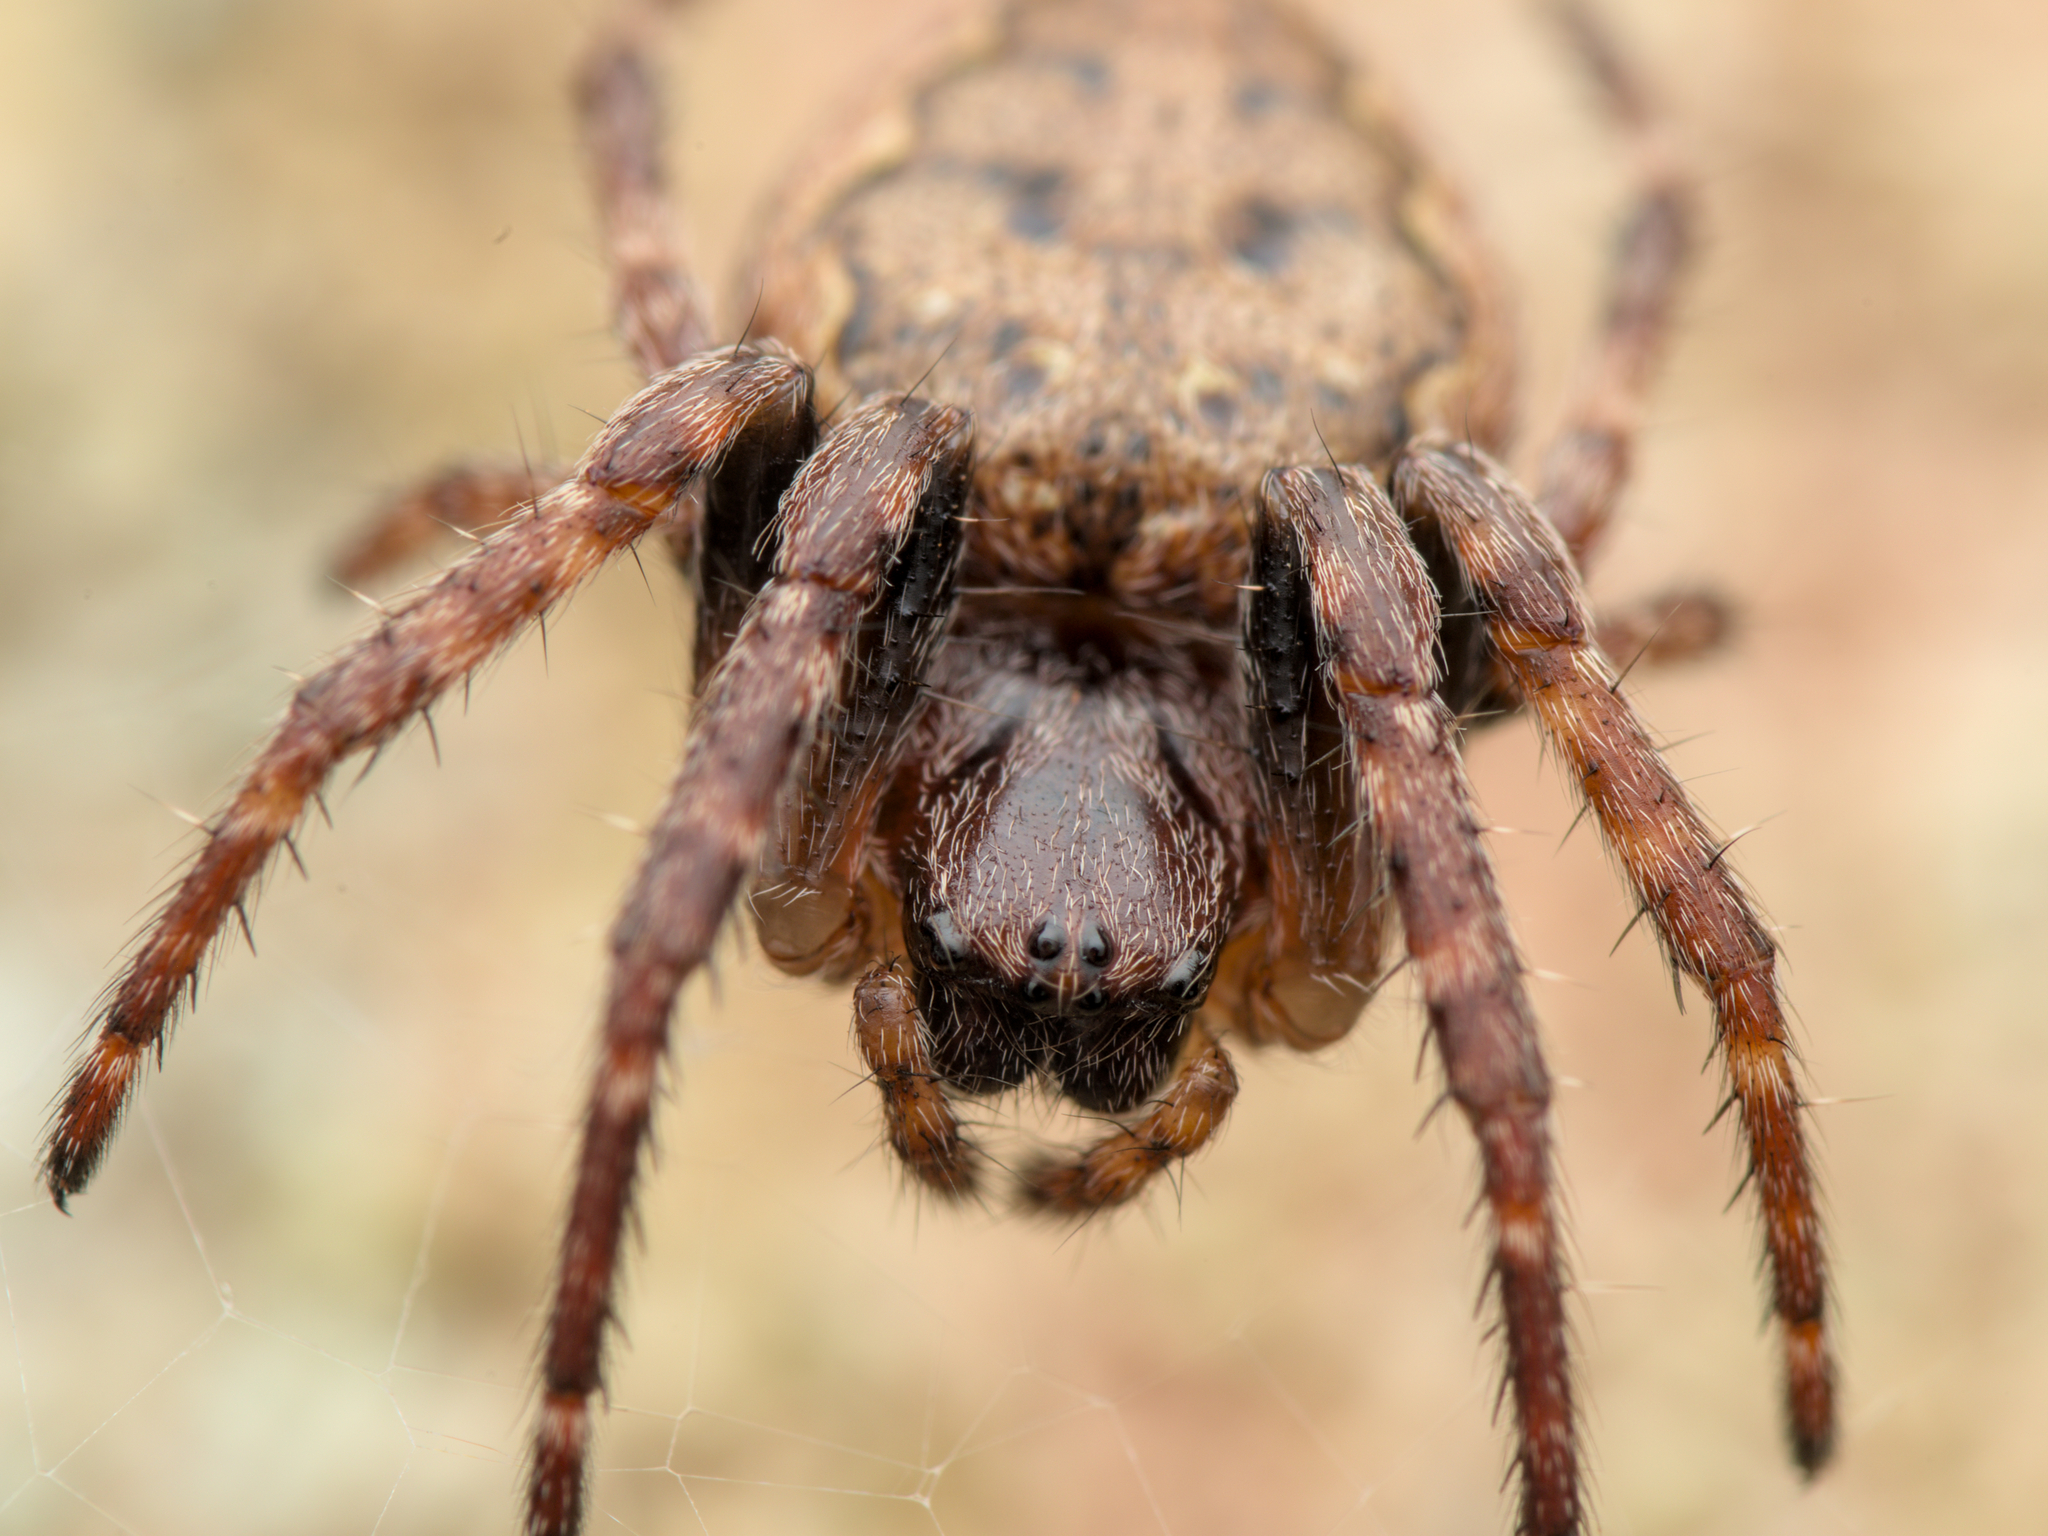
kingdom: Animalia
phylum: Arthropoda
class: Arachnida
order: Araneae
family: Araneidae
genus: Nuctenea
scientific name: Nuctenea umbratica
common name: Toad spider
